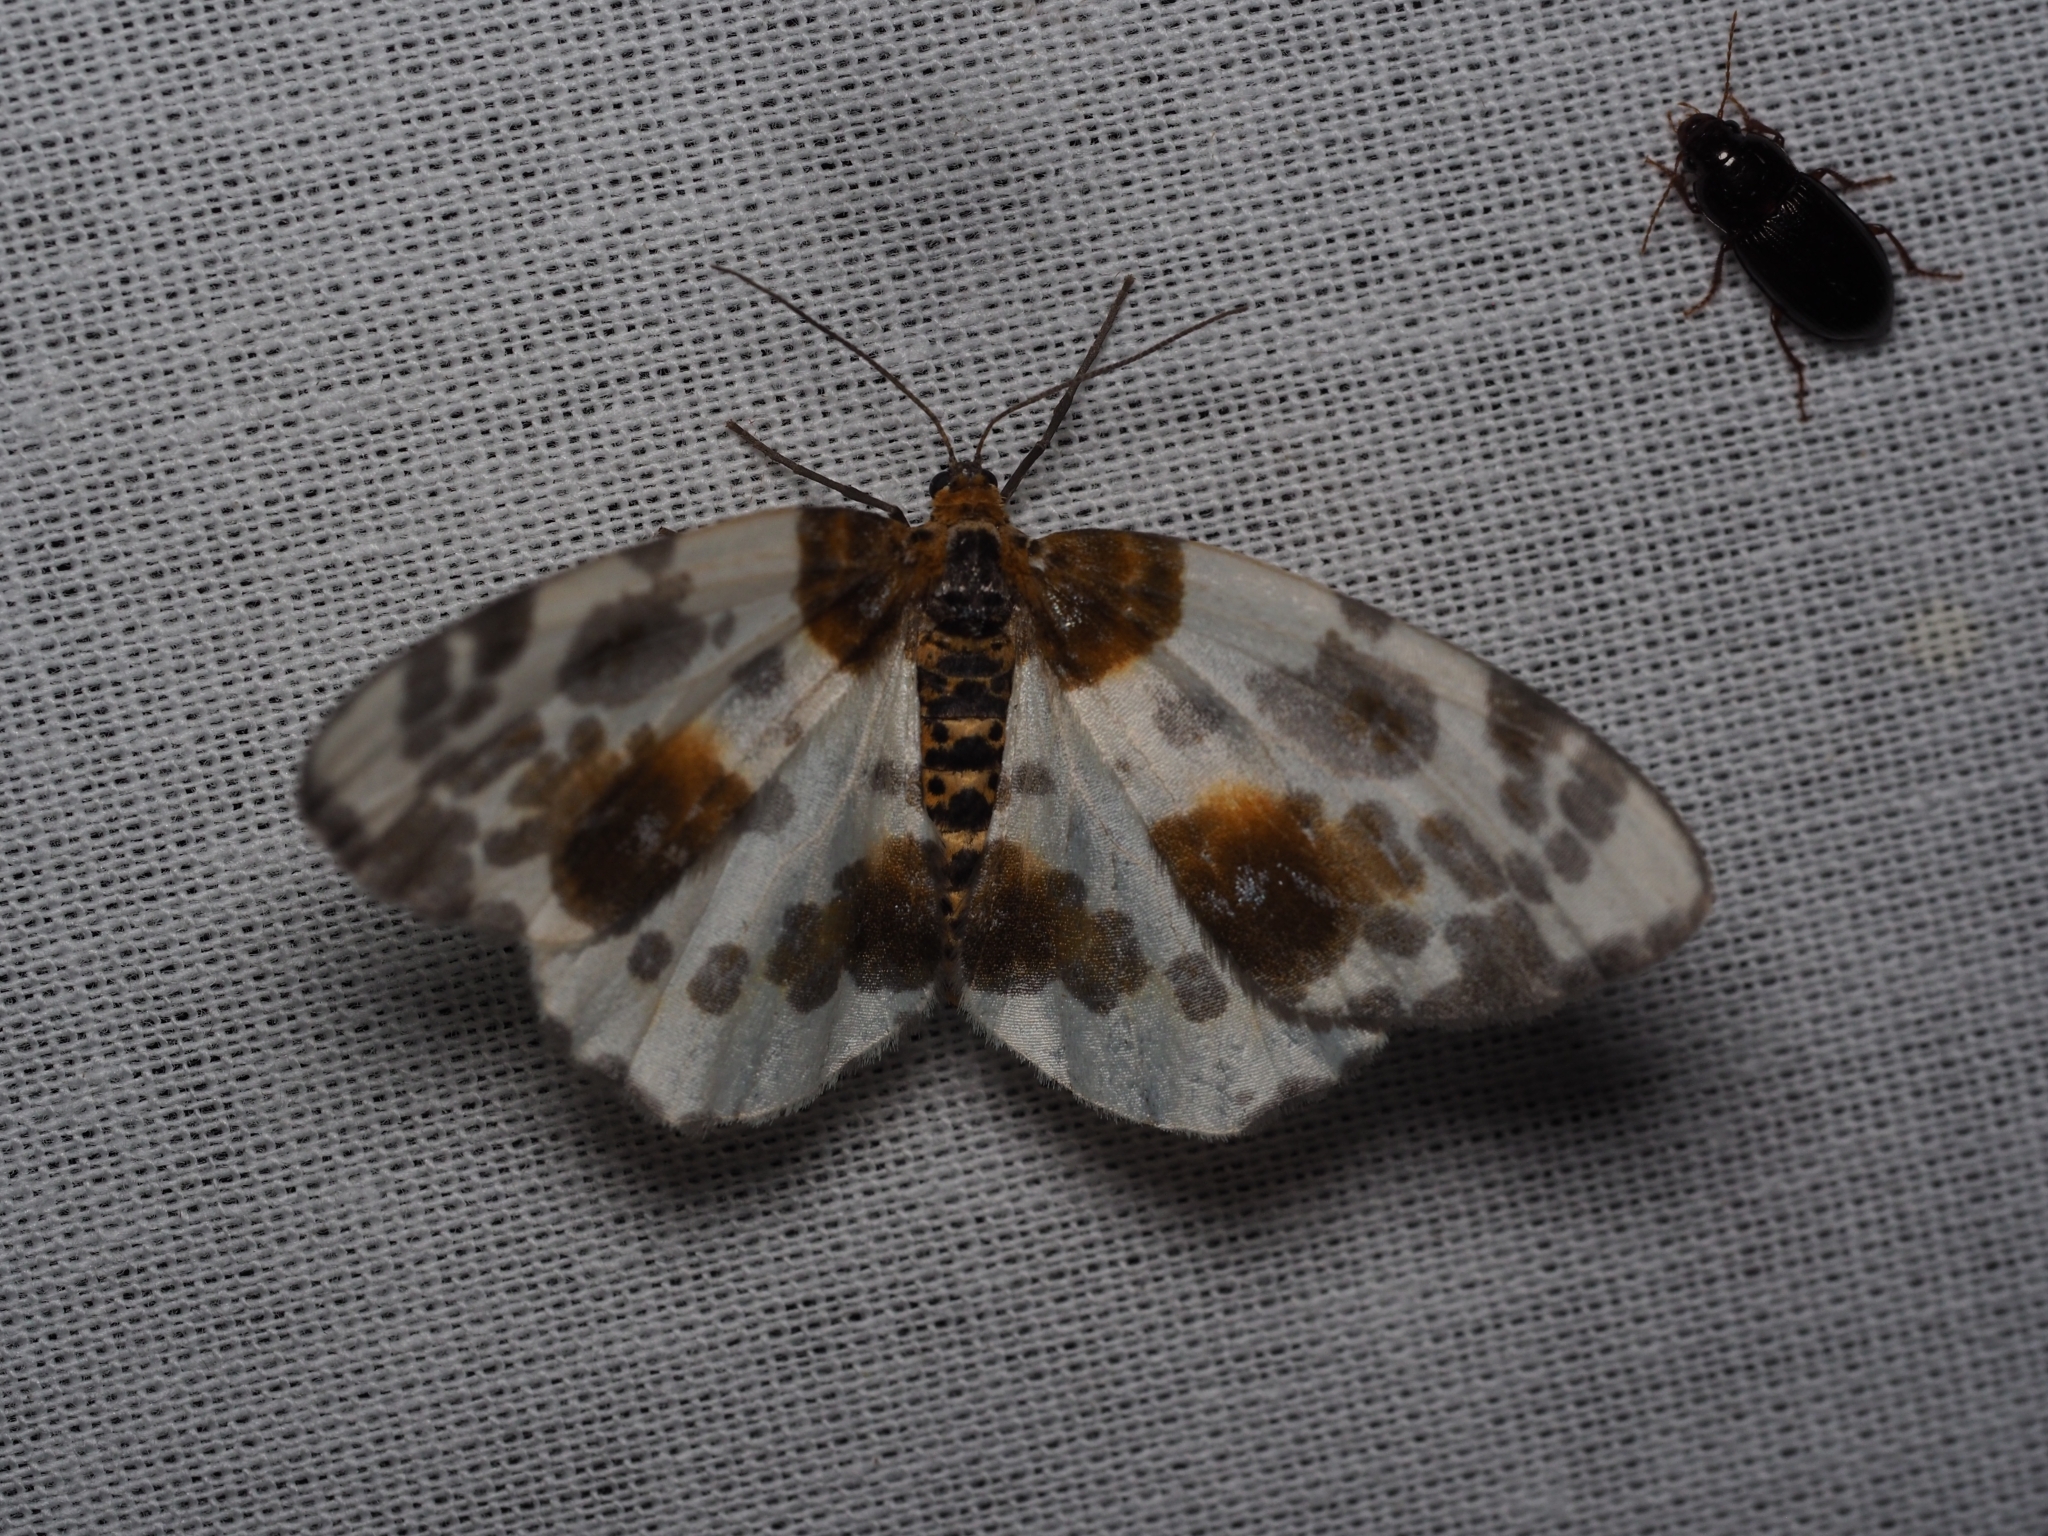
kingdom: Animalia
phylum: Arthropoda
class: Insecta
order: Lepidoptera
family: Geometridae
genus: Abraxas
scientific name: Abraxas sylvata
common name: Clouded magpie
